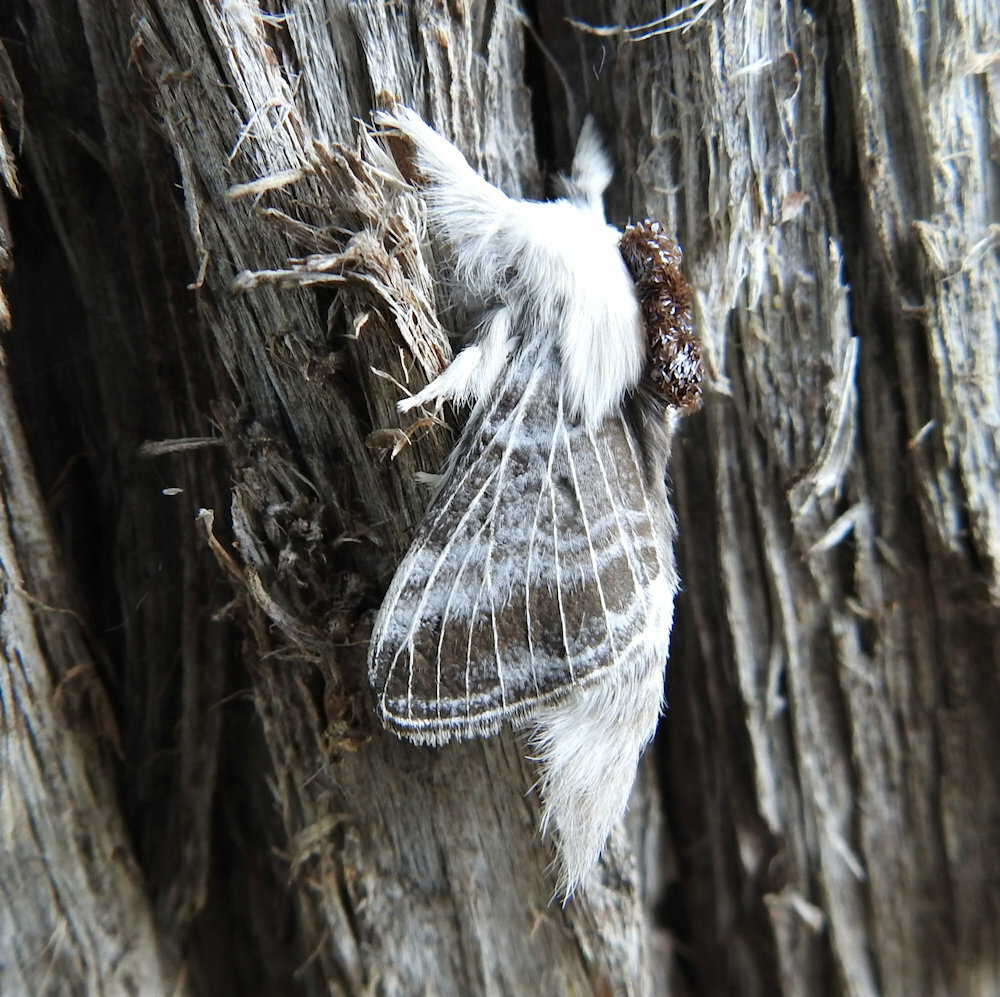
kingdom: Animalia
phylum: Arthropoda
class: Insecta
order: Lepidoptera
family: Lasiocampidae
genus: Tolype
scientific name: Tolype velleda
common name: Large tolype moth
